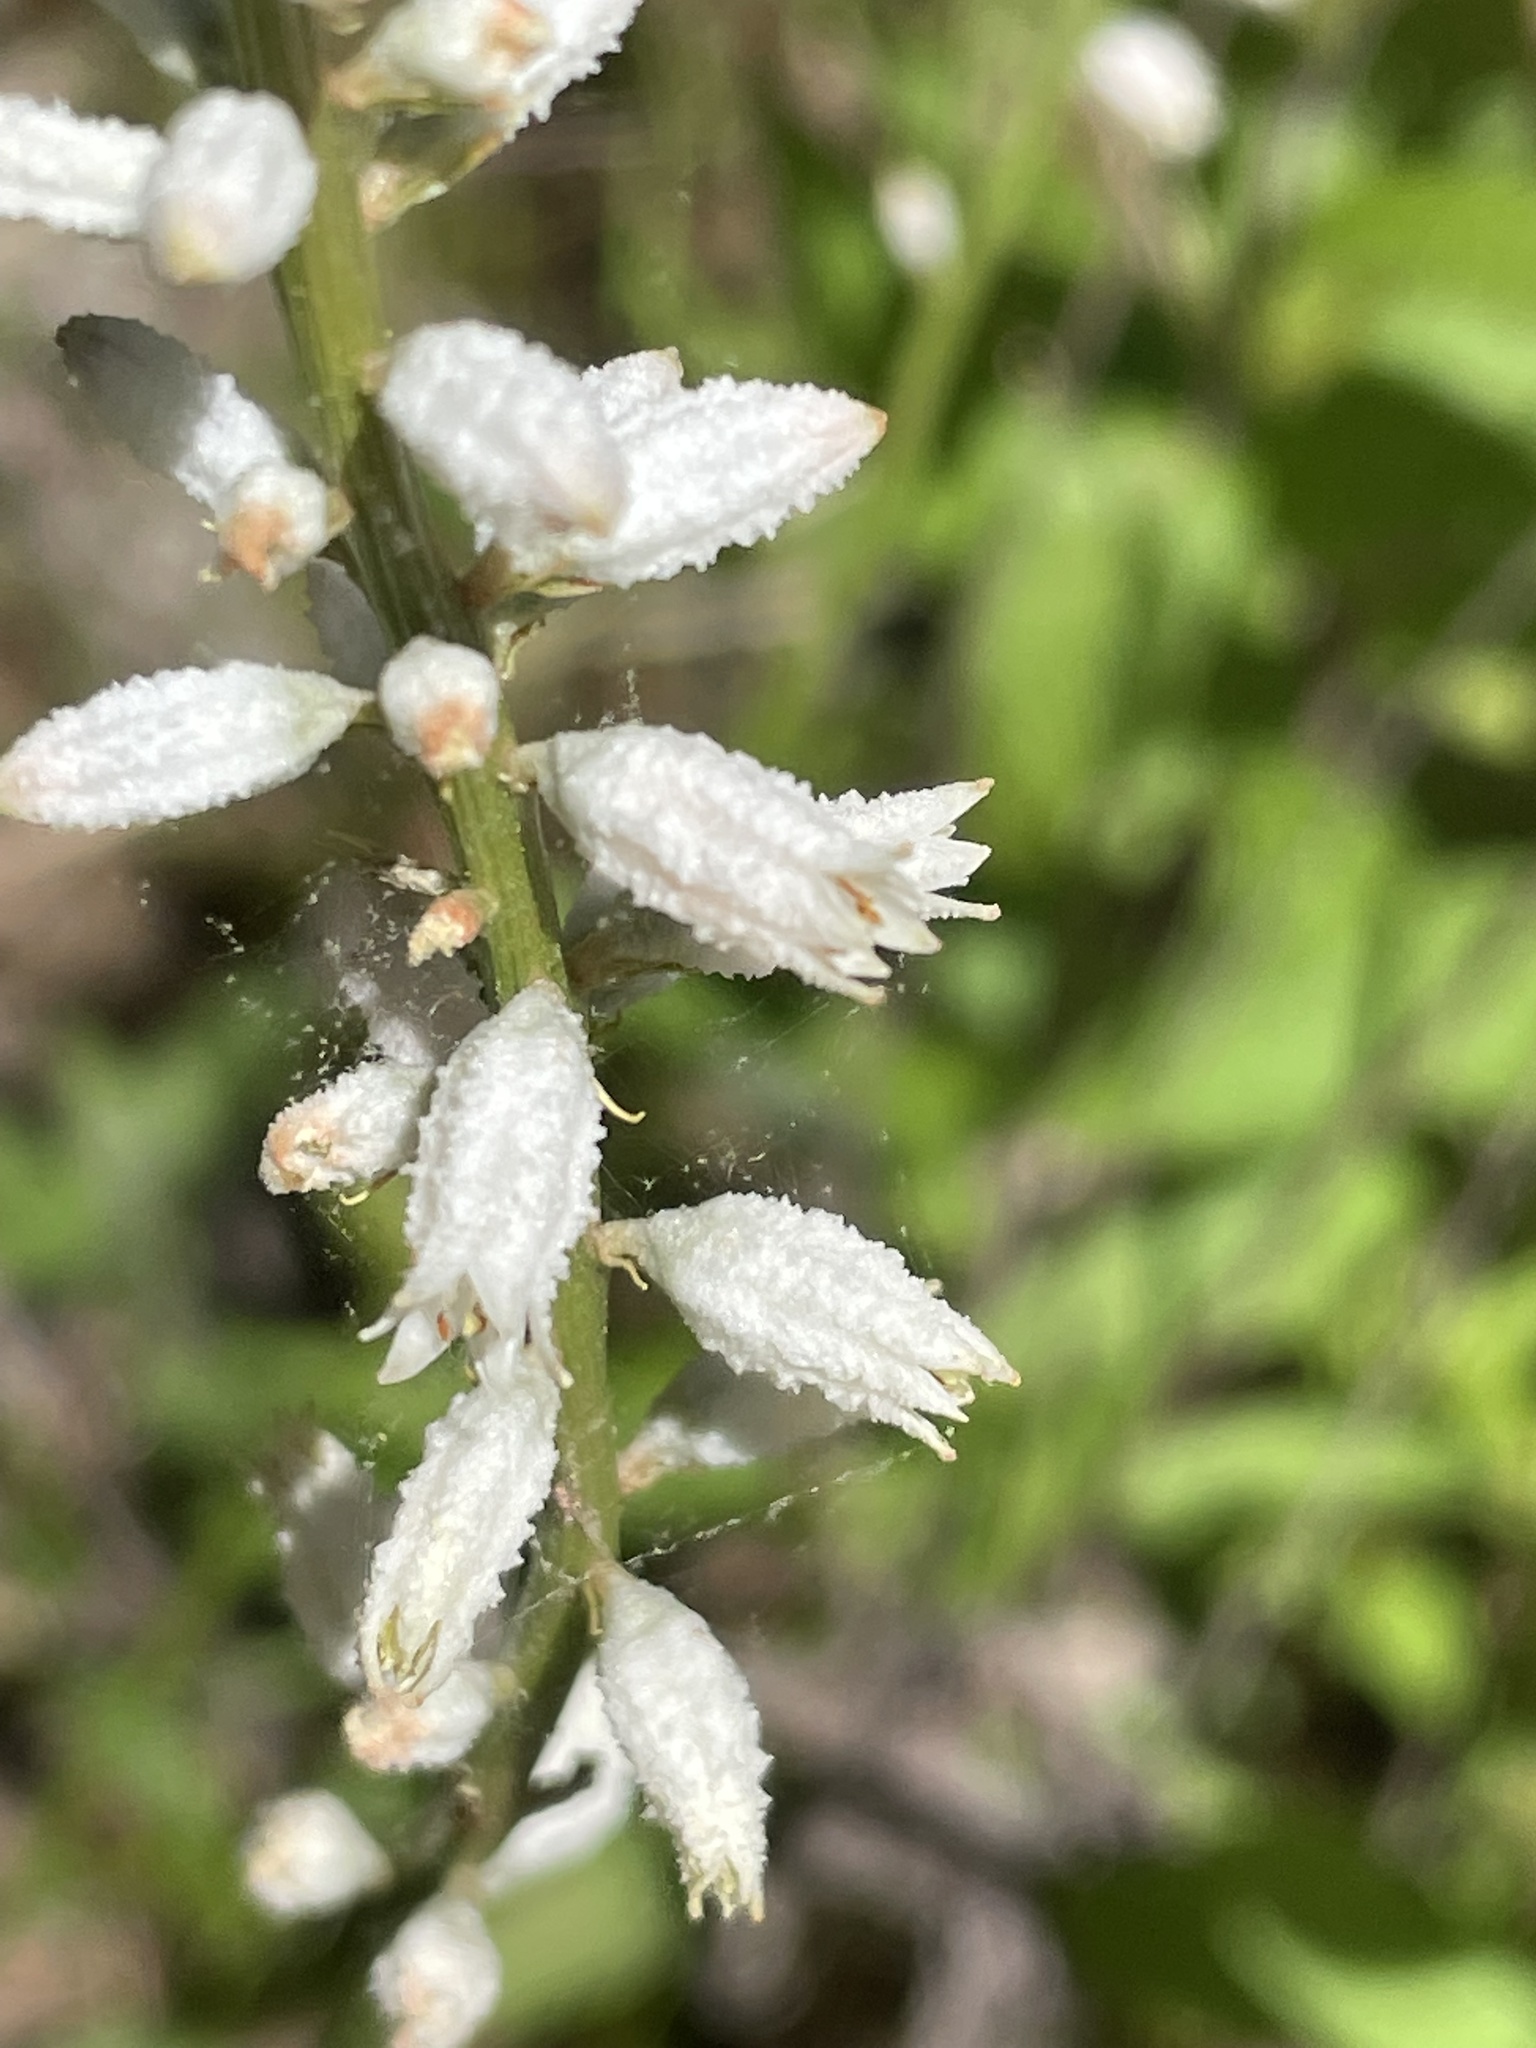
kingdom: Plantae
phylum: Tracheophyta
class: Liliopsida
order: Dioscoreales
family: Nartheciaceae
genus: Aletris
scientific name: Aletris farinosa
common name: Colicroot
